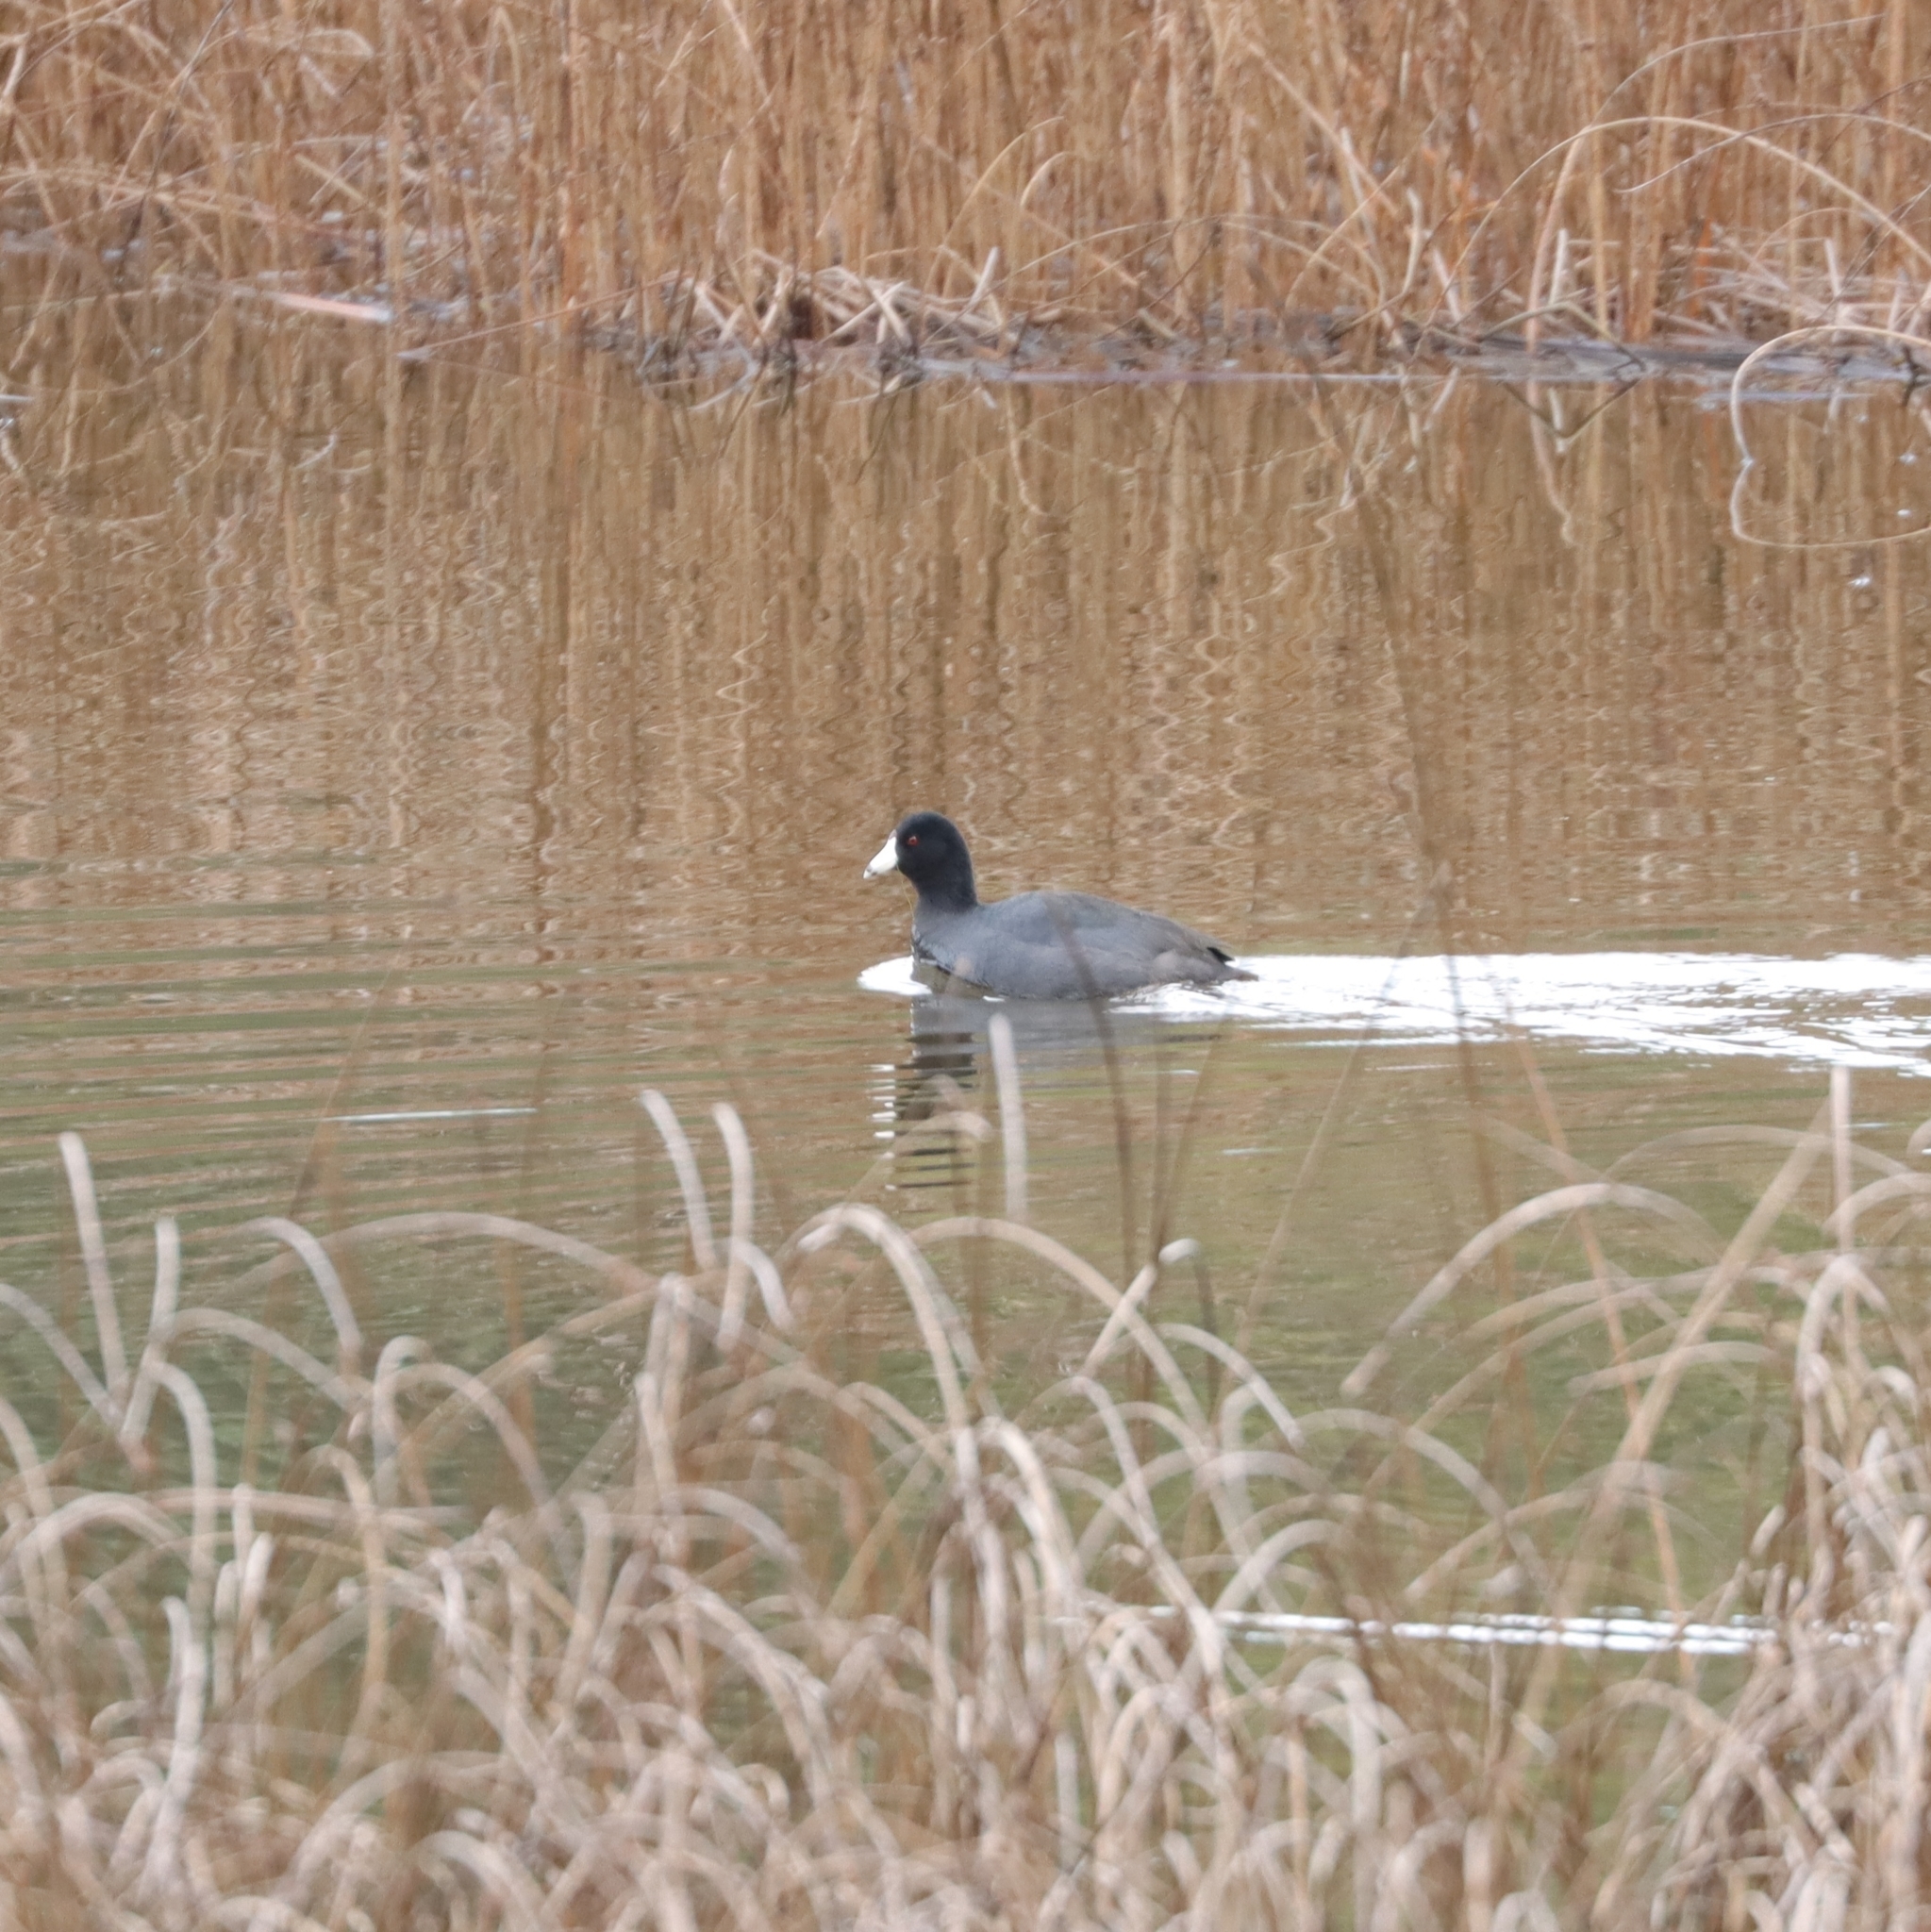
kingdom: Animalia
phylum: Chordata
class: Aves
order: Gruiformes
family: Rallidae
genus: Fulica
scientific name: Fulica americana
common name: American coot
